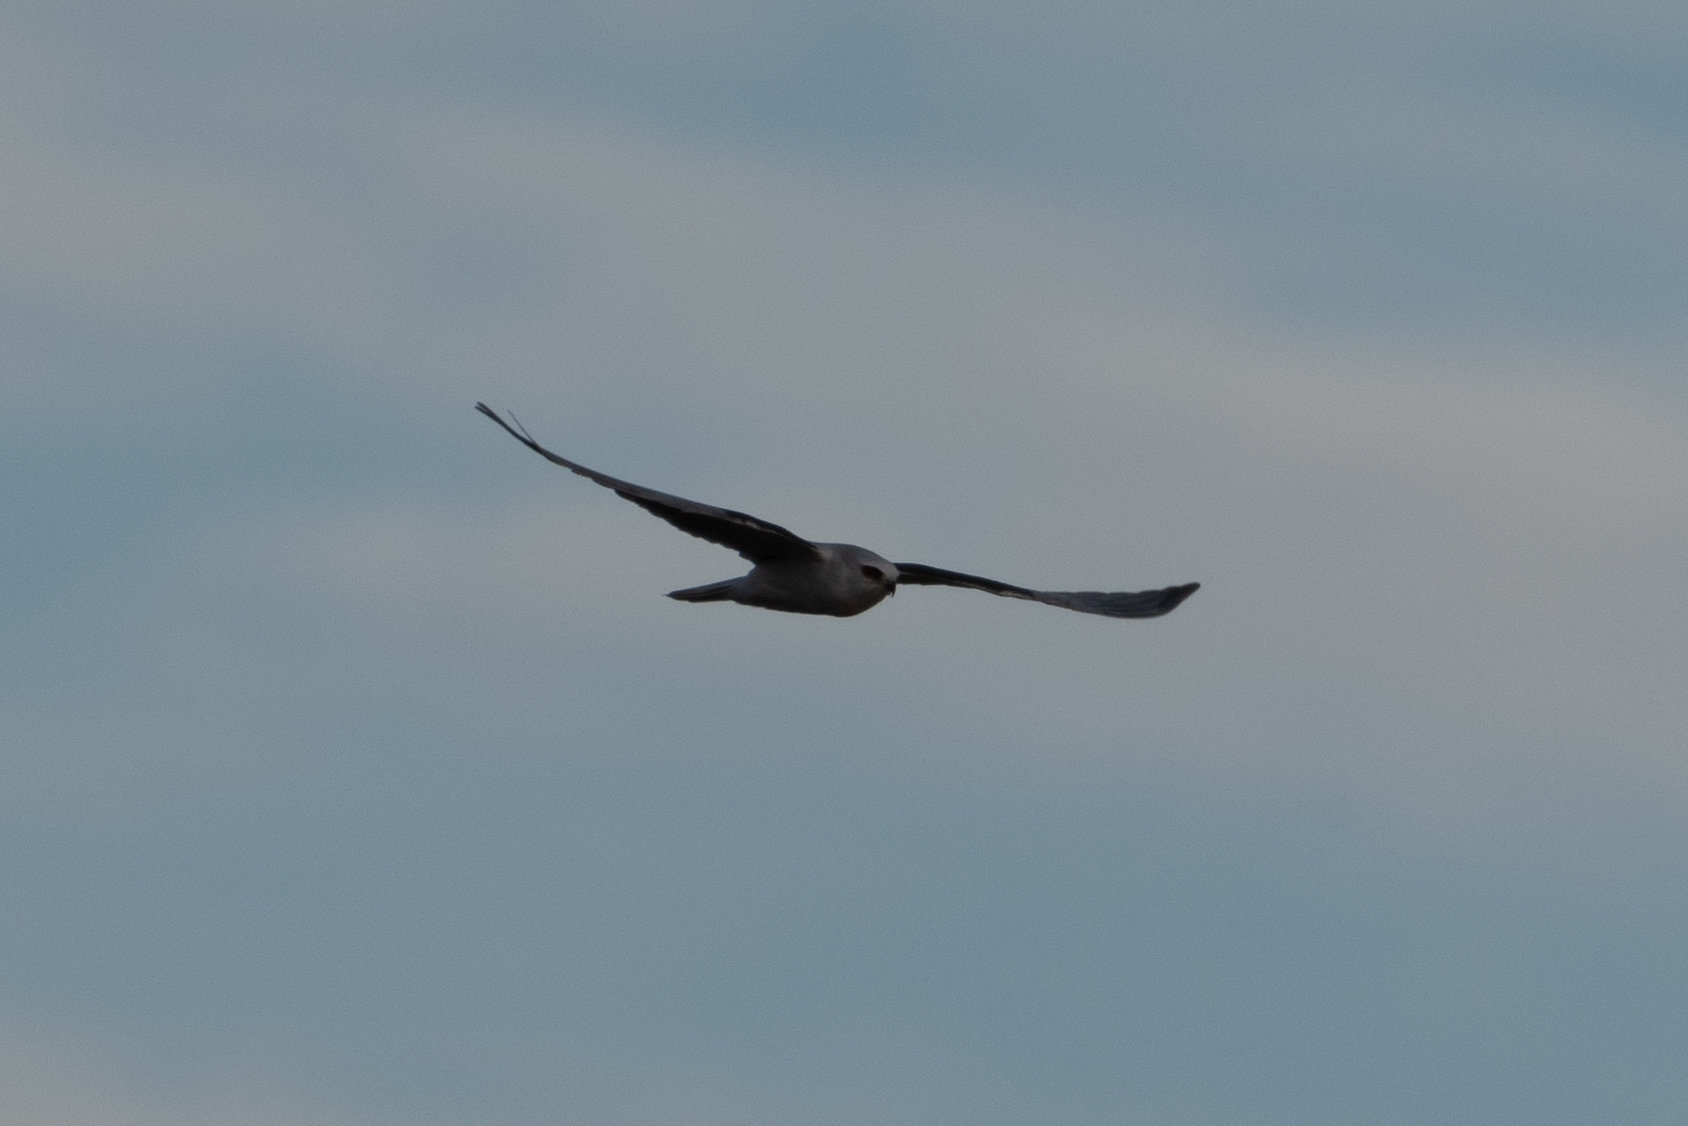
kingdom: Animalia
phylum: Chordata
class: Aves
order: Accipitriformes
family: Accipitridae
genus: Elanus
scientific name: Elanus leucurus
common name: White-tailed kite
